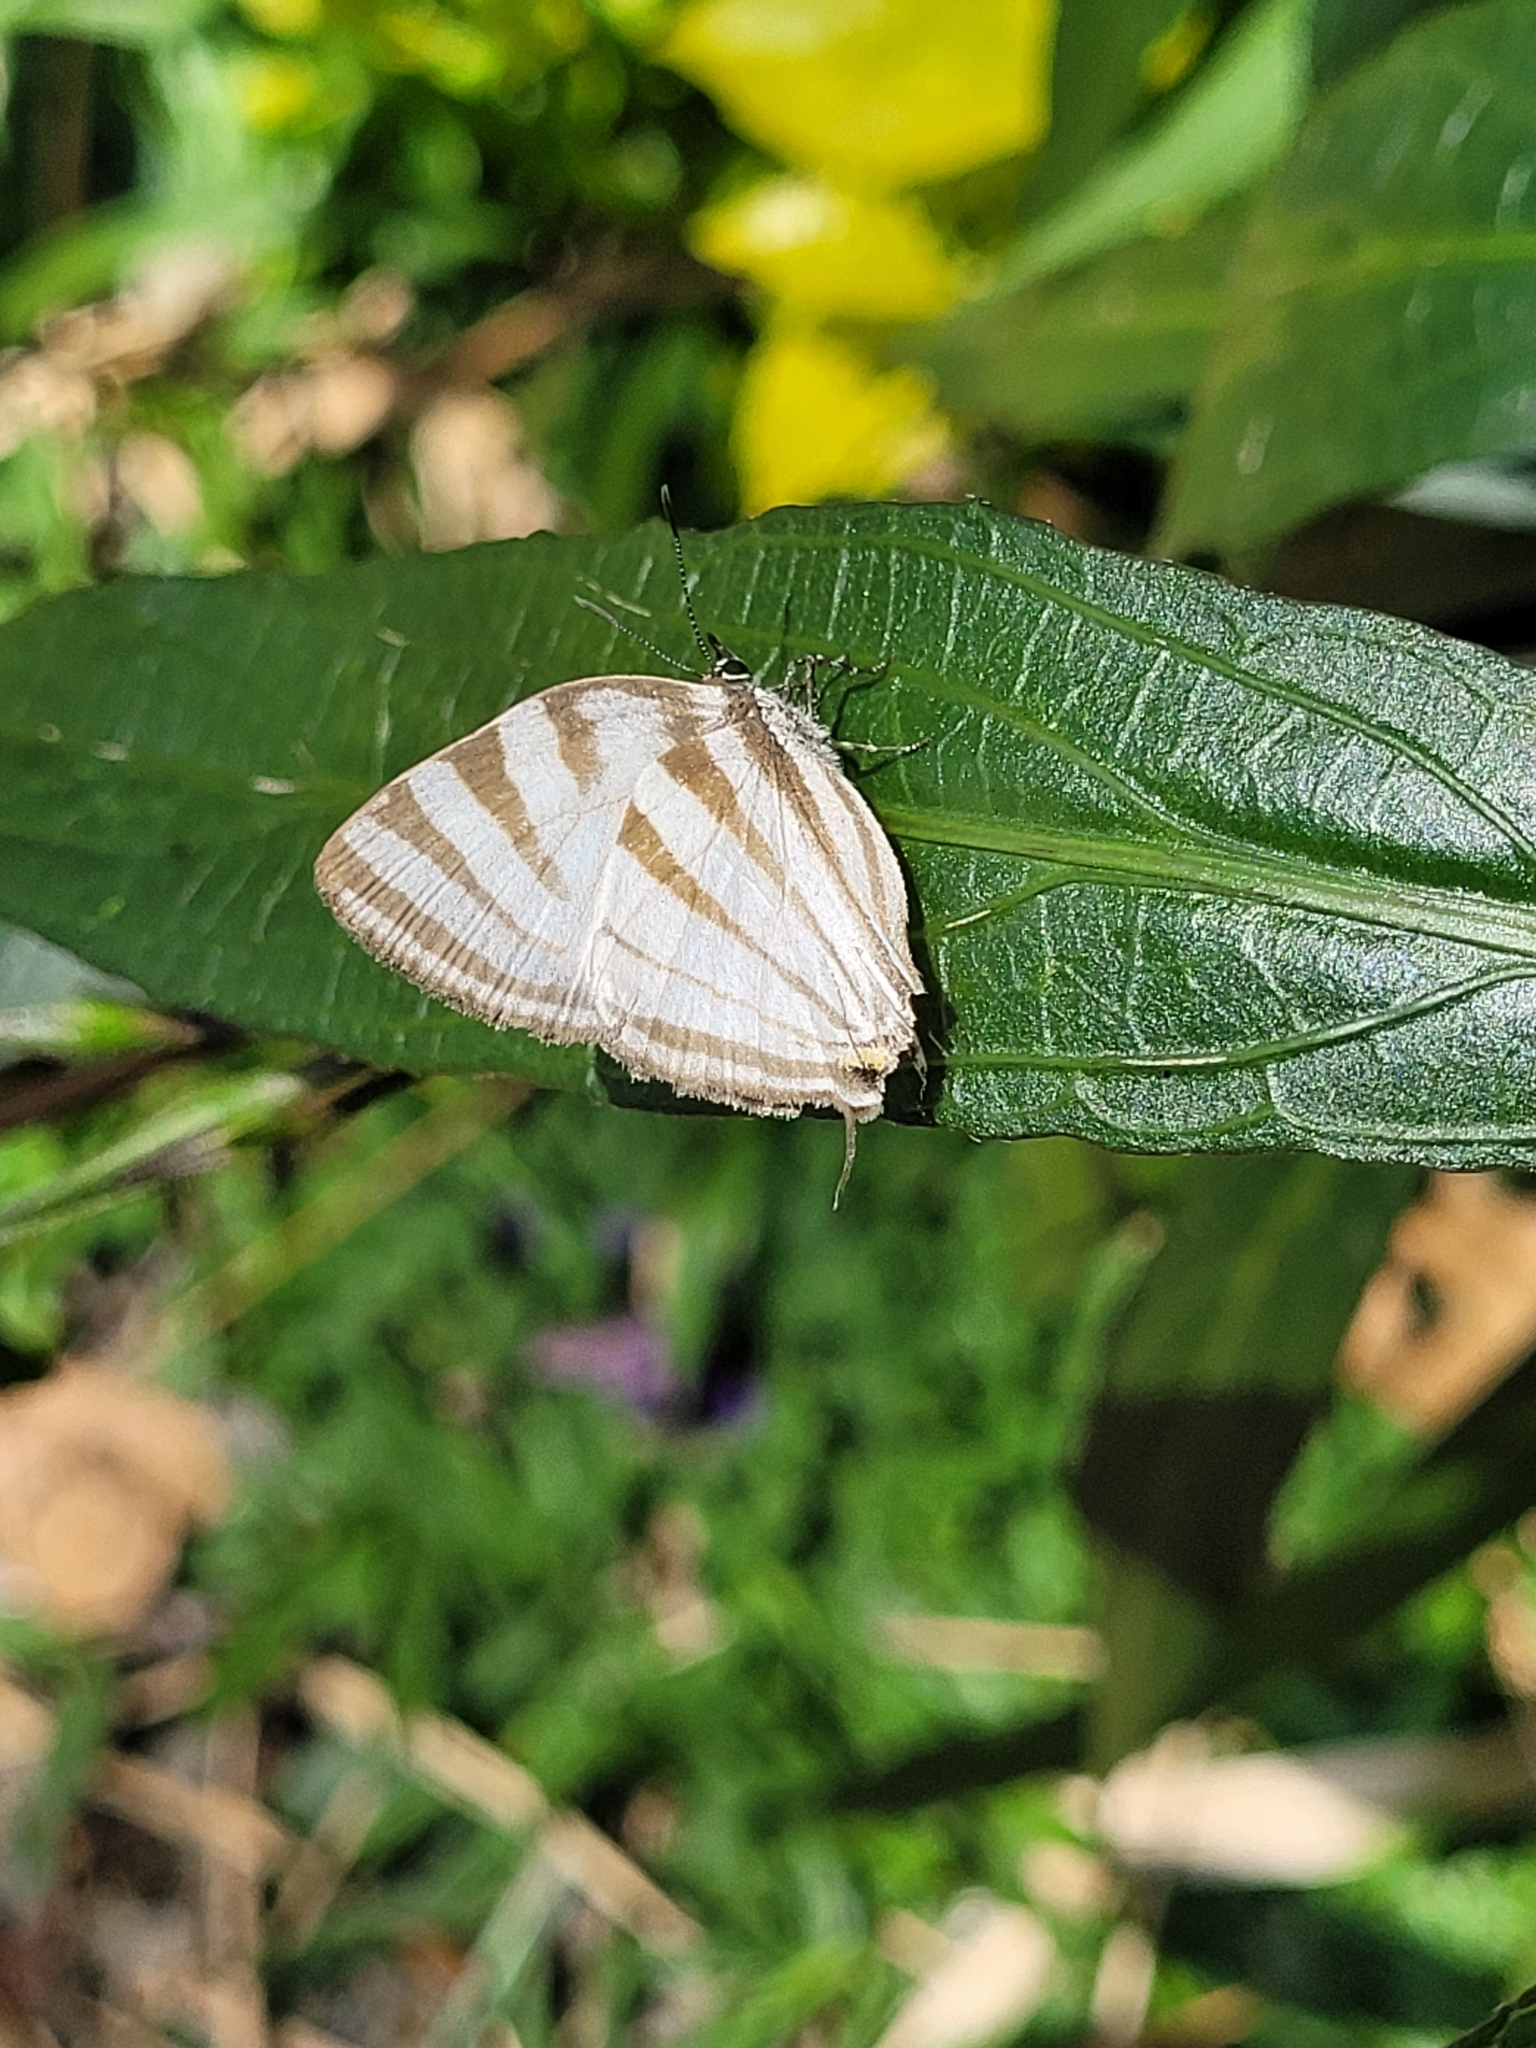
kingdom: Animalia
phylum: Arthropoda
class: Insecta
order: Lepidoptera
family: Lycaenidae
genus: Laothus
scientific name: Laothus gibberosa
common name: Great stripestreak
